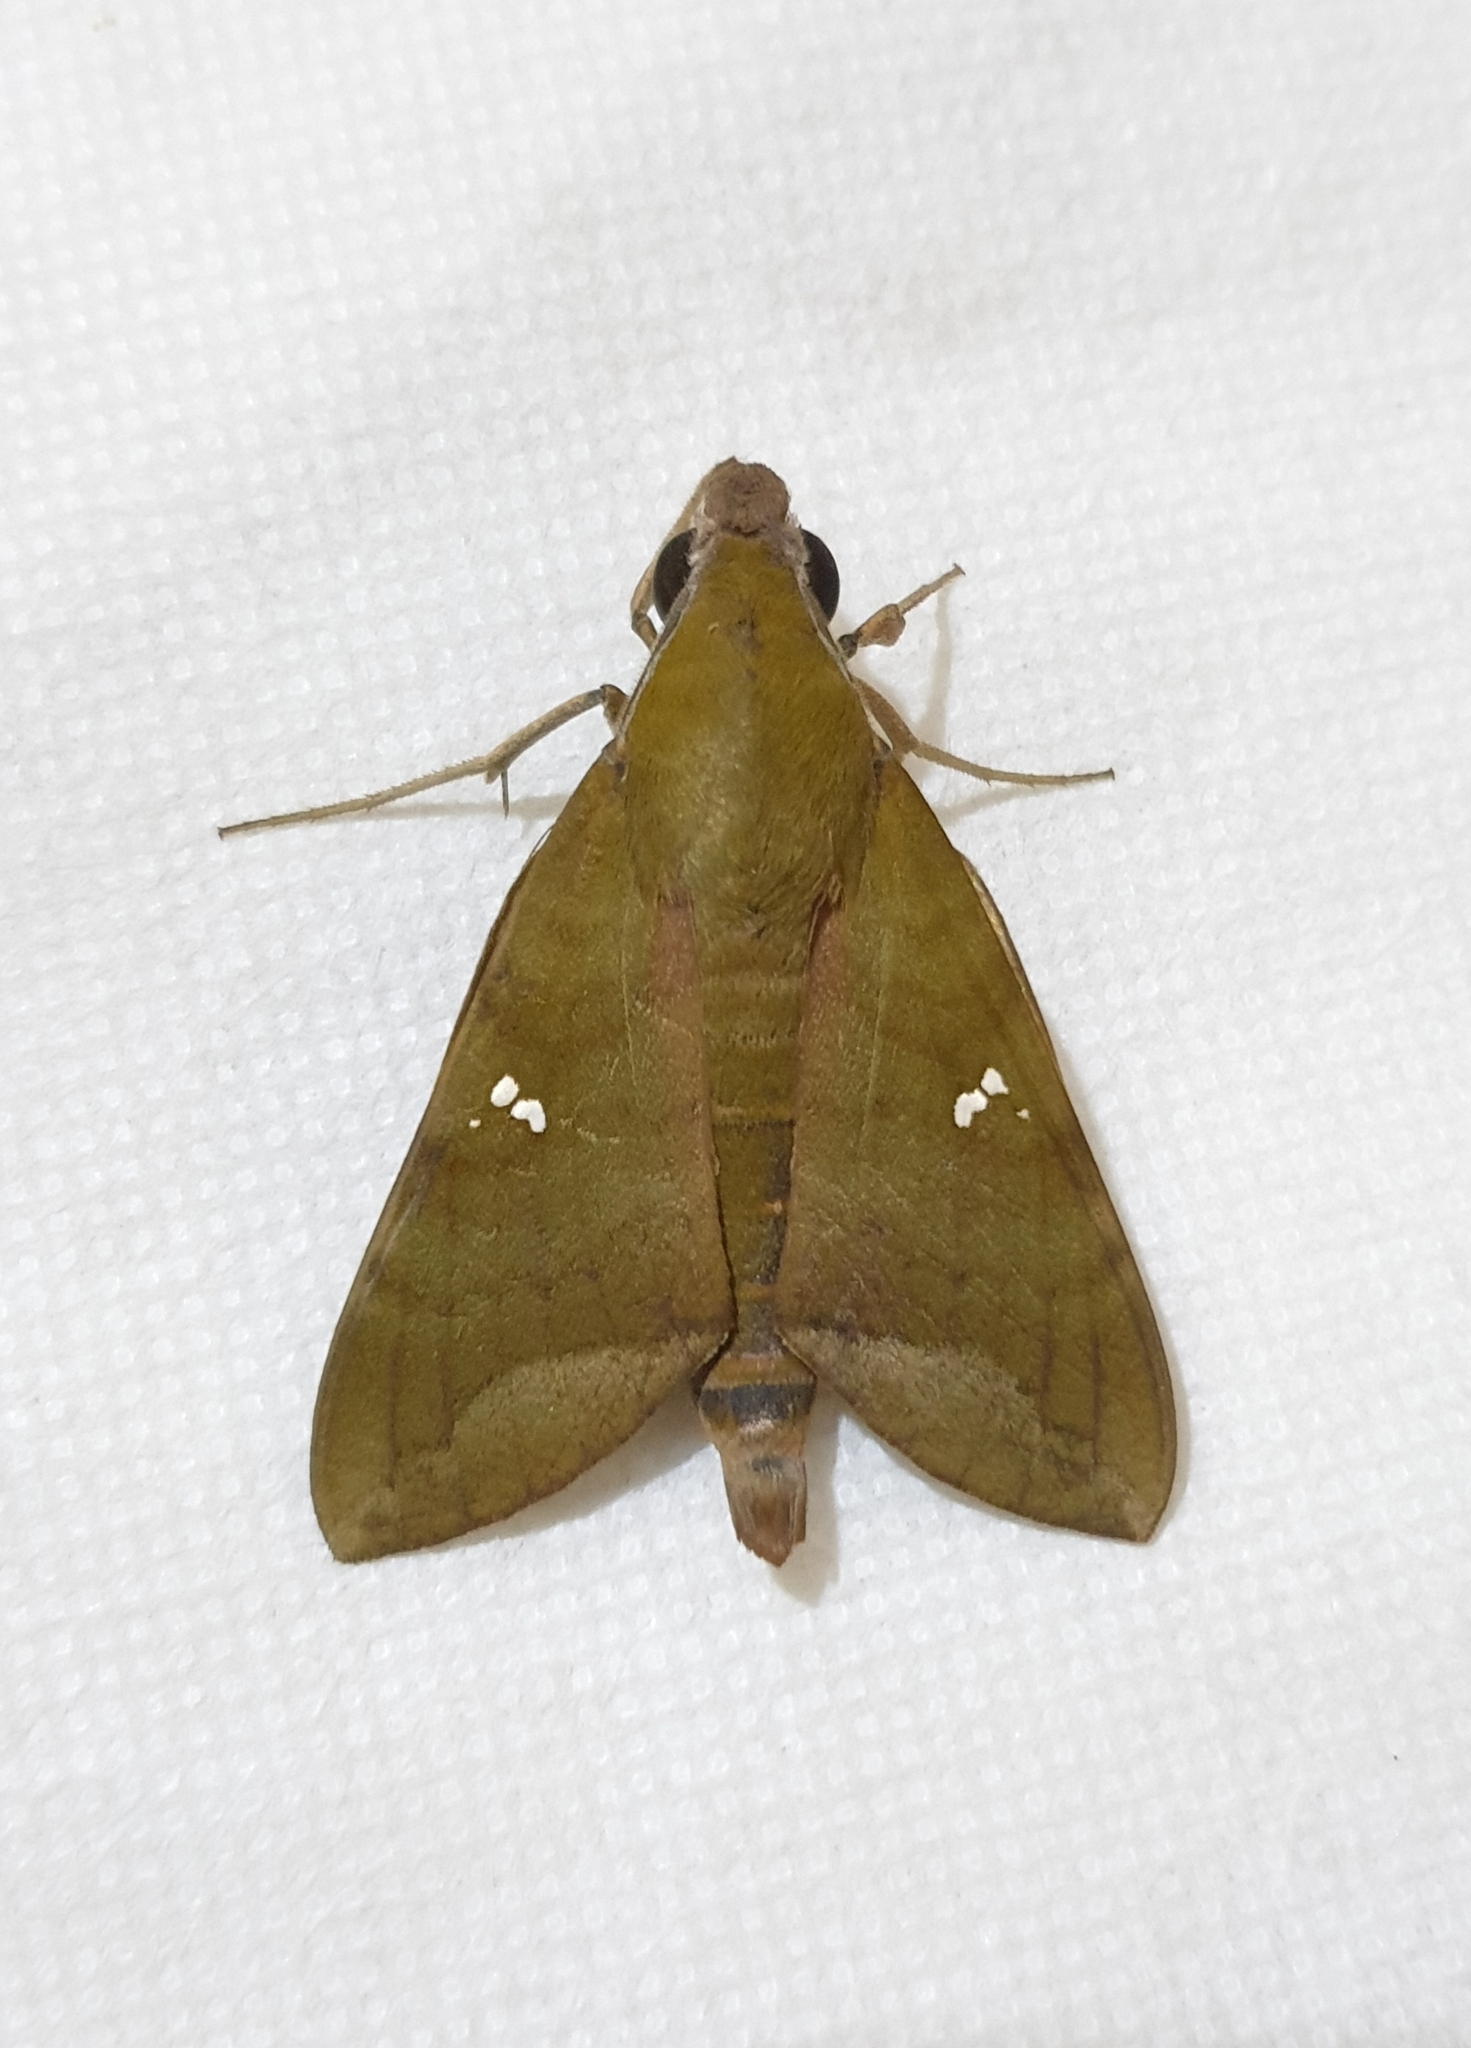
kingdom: Animalia
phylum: Arthropoda
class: Insecta
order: Lepidoptera
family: Sphingidae
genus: Nephele
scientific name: Nephele hespera
